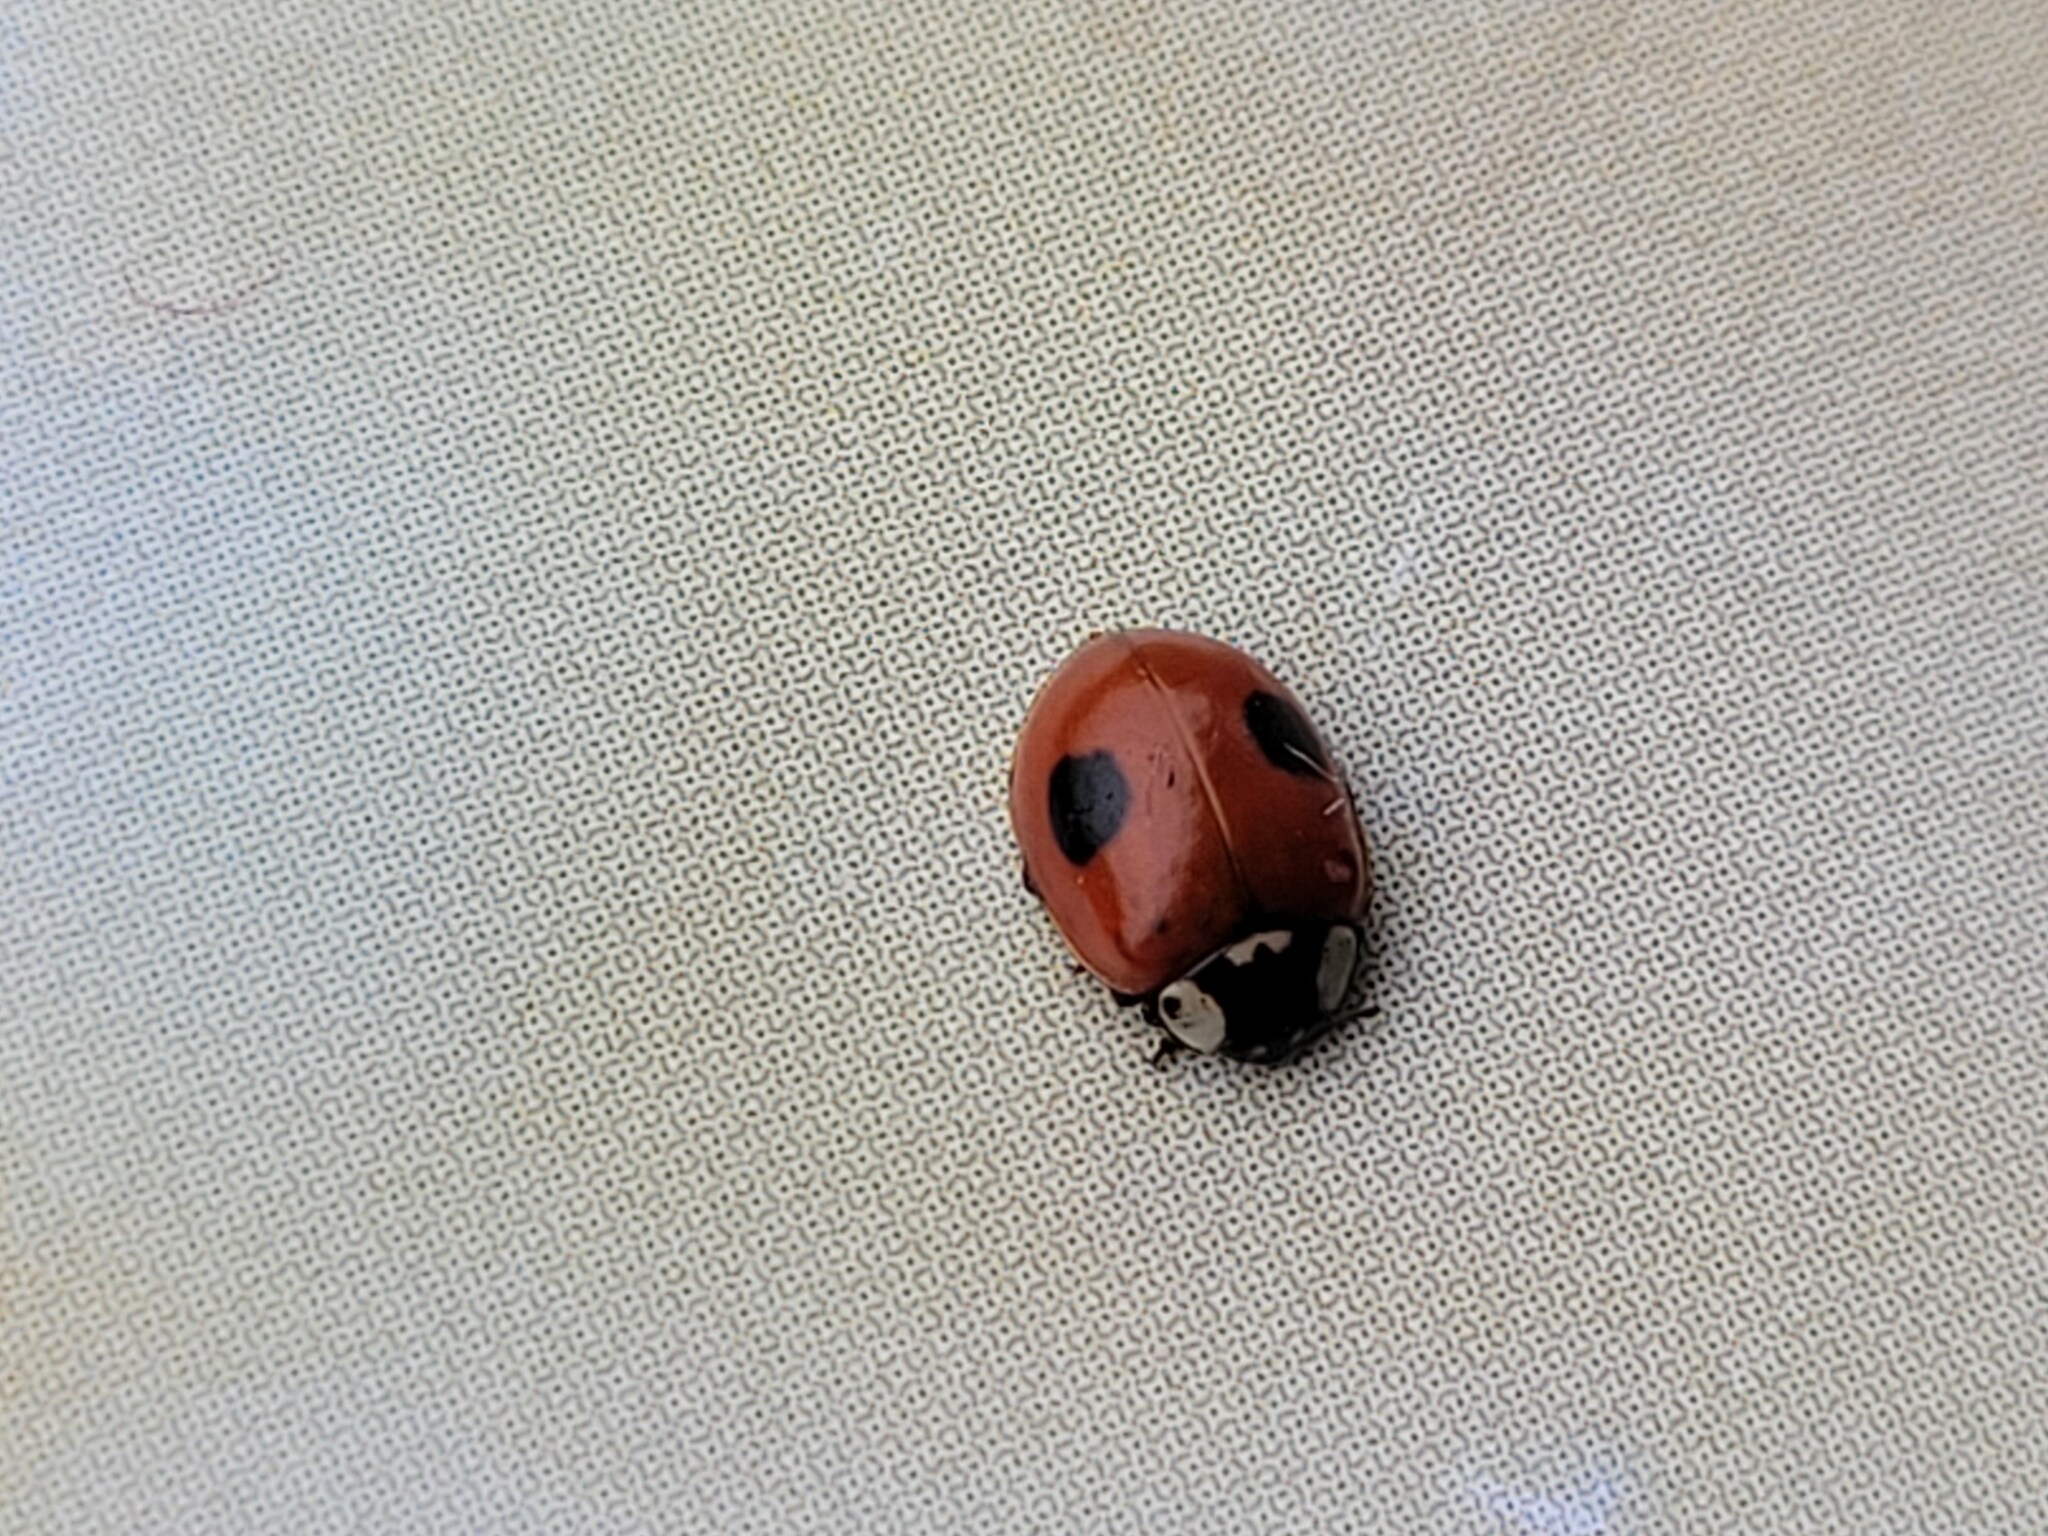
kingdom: Animalia
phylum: Arthropoda
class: Insecta
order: Coleoptera
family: Coccinellidae
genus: Adalia
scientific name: Adalia bipunctata
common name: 2-spot ladybird
